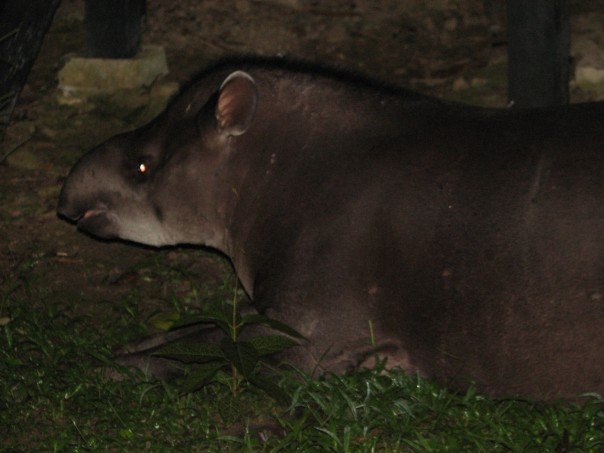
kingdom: Animalia
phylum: Chordata
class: Mammalia
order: Perissodactyla
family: Tapiridae
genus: Tapirus
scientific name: Tapirus terrestris
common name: Brazilian tapir
